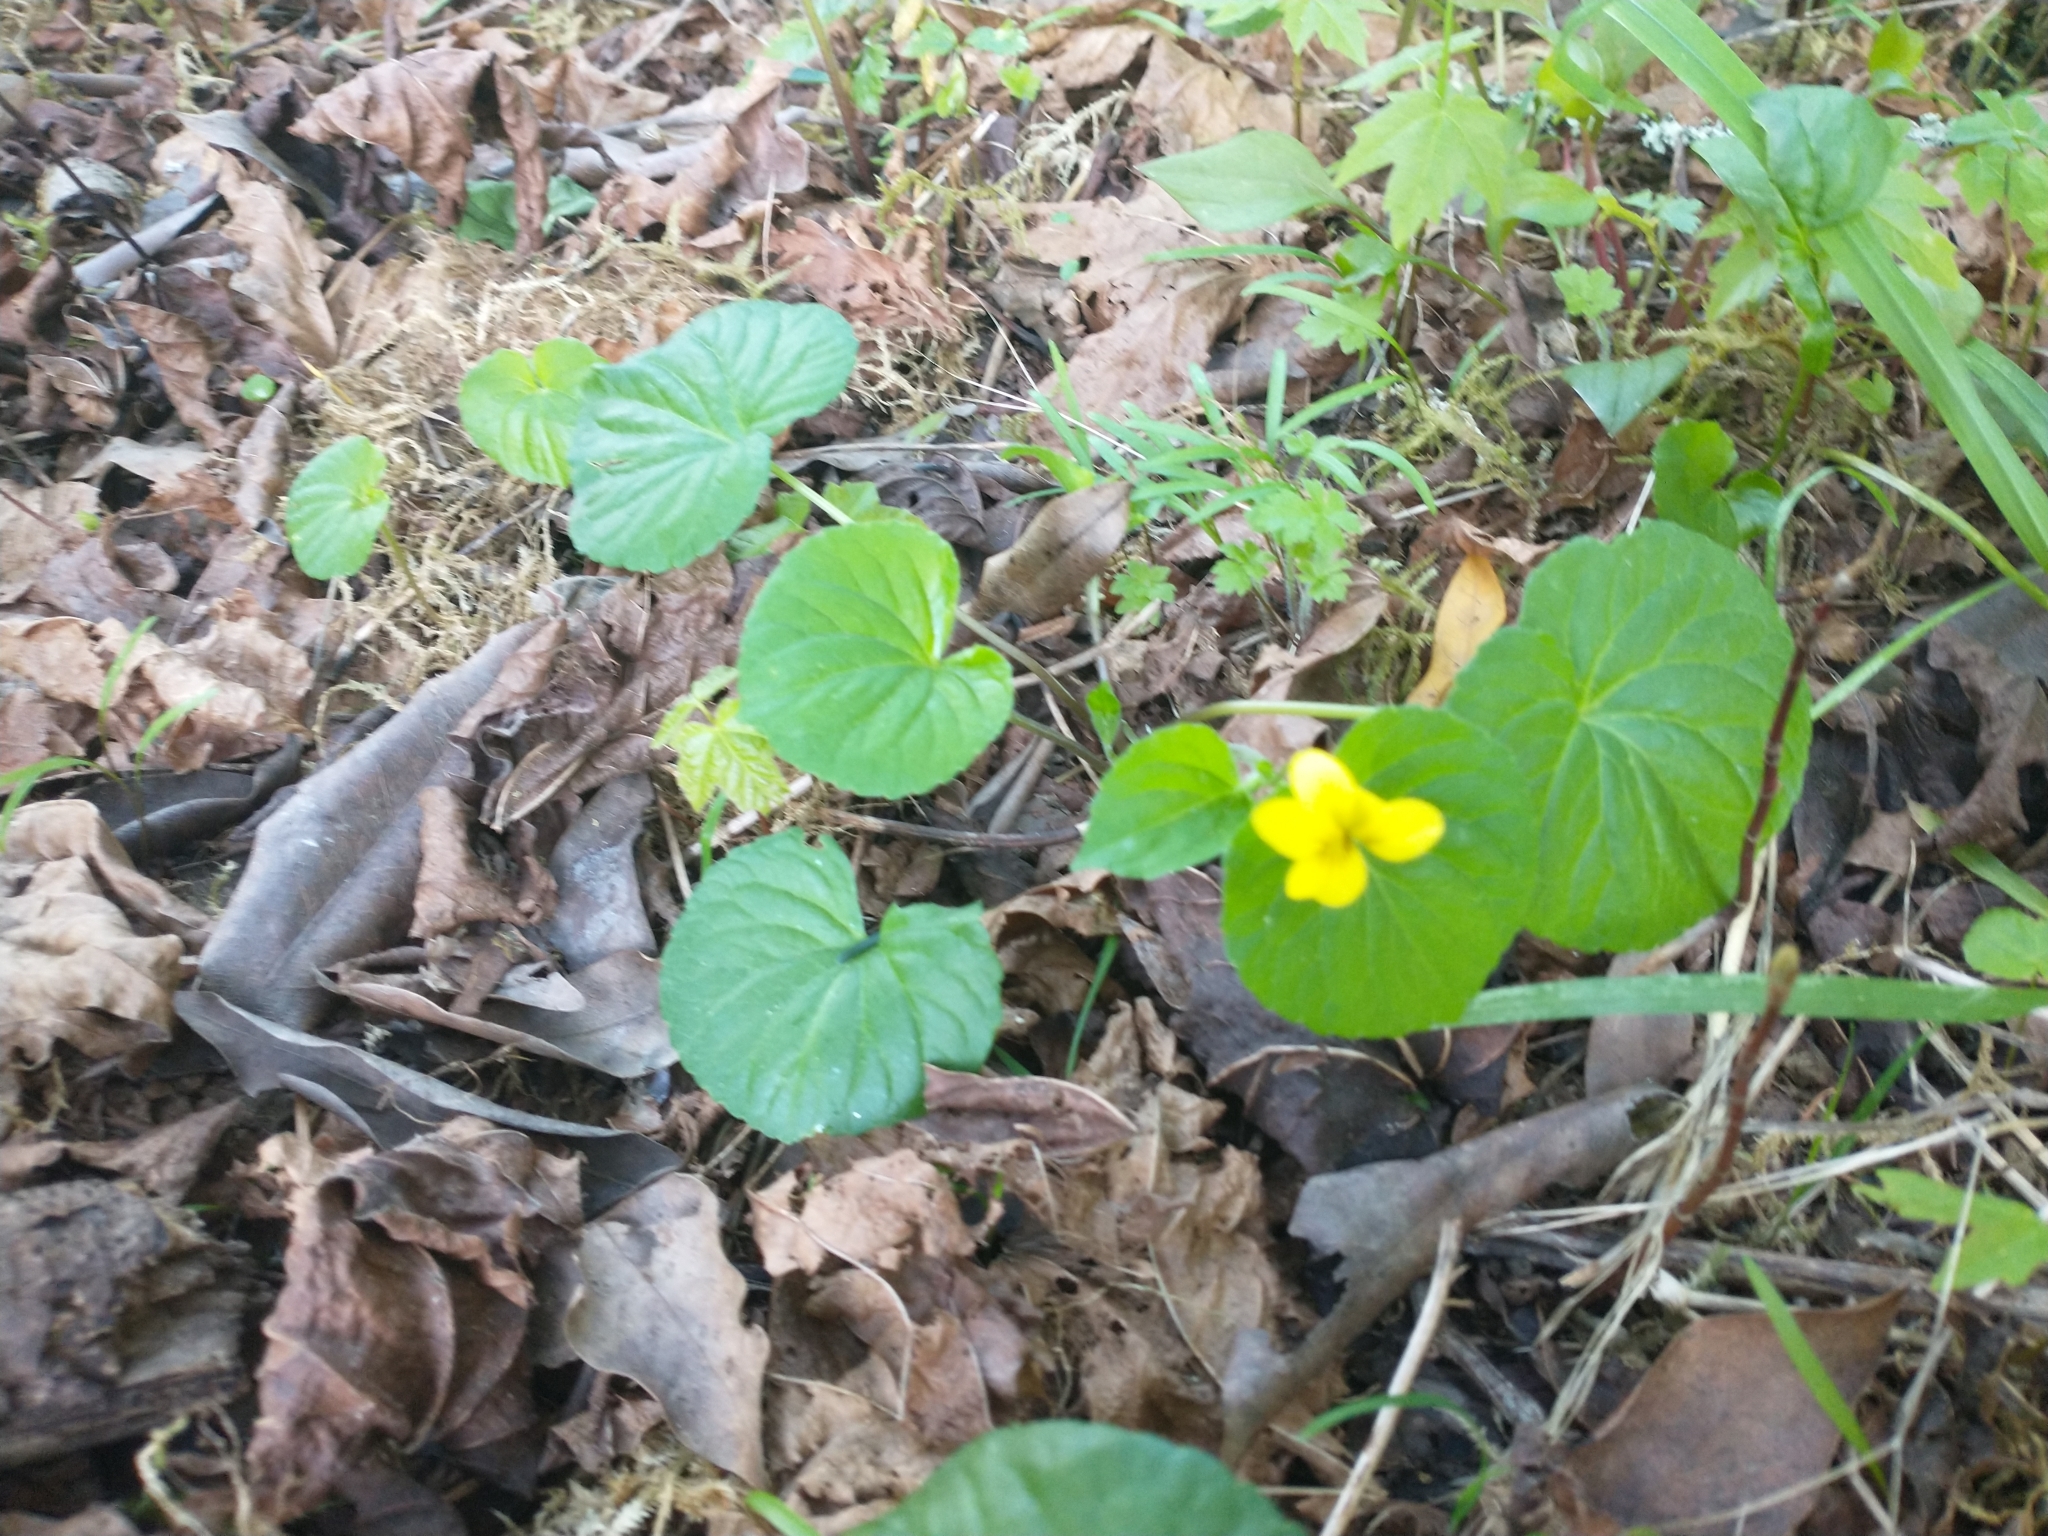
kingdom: Plantae
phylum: Tracheophyta
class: Magnoliopsida
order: Malpighiales
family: Violaceae
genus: Viola
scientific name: Viola glabella
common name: Stream violet
